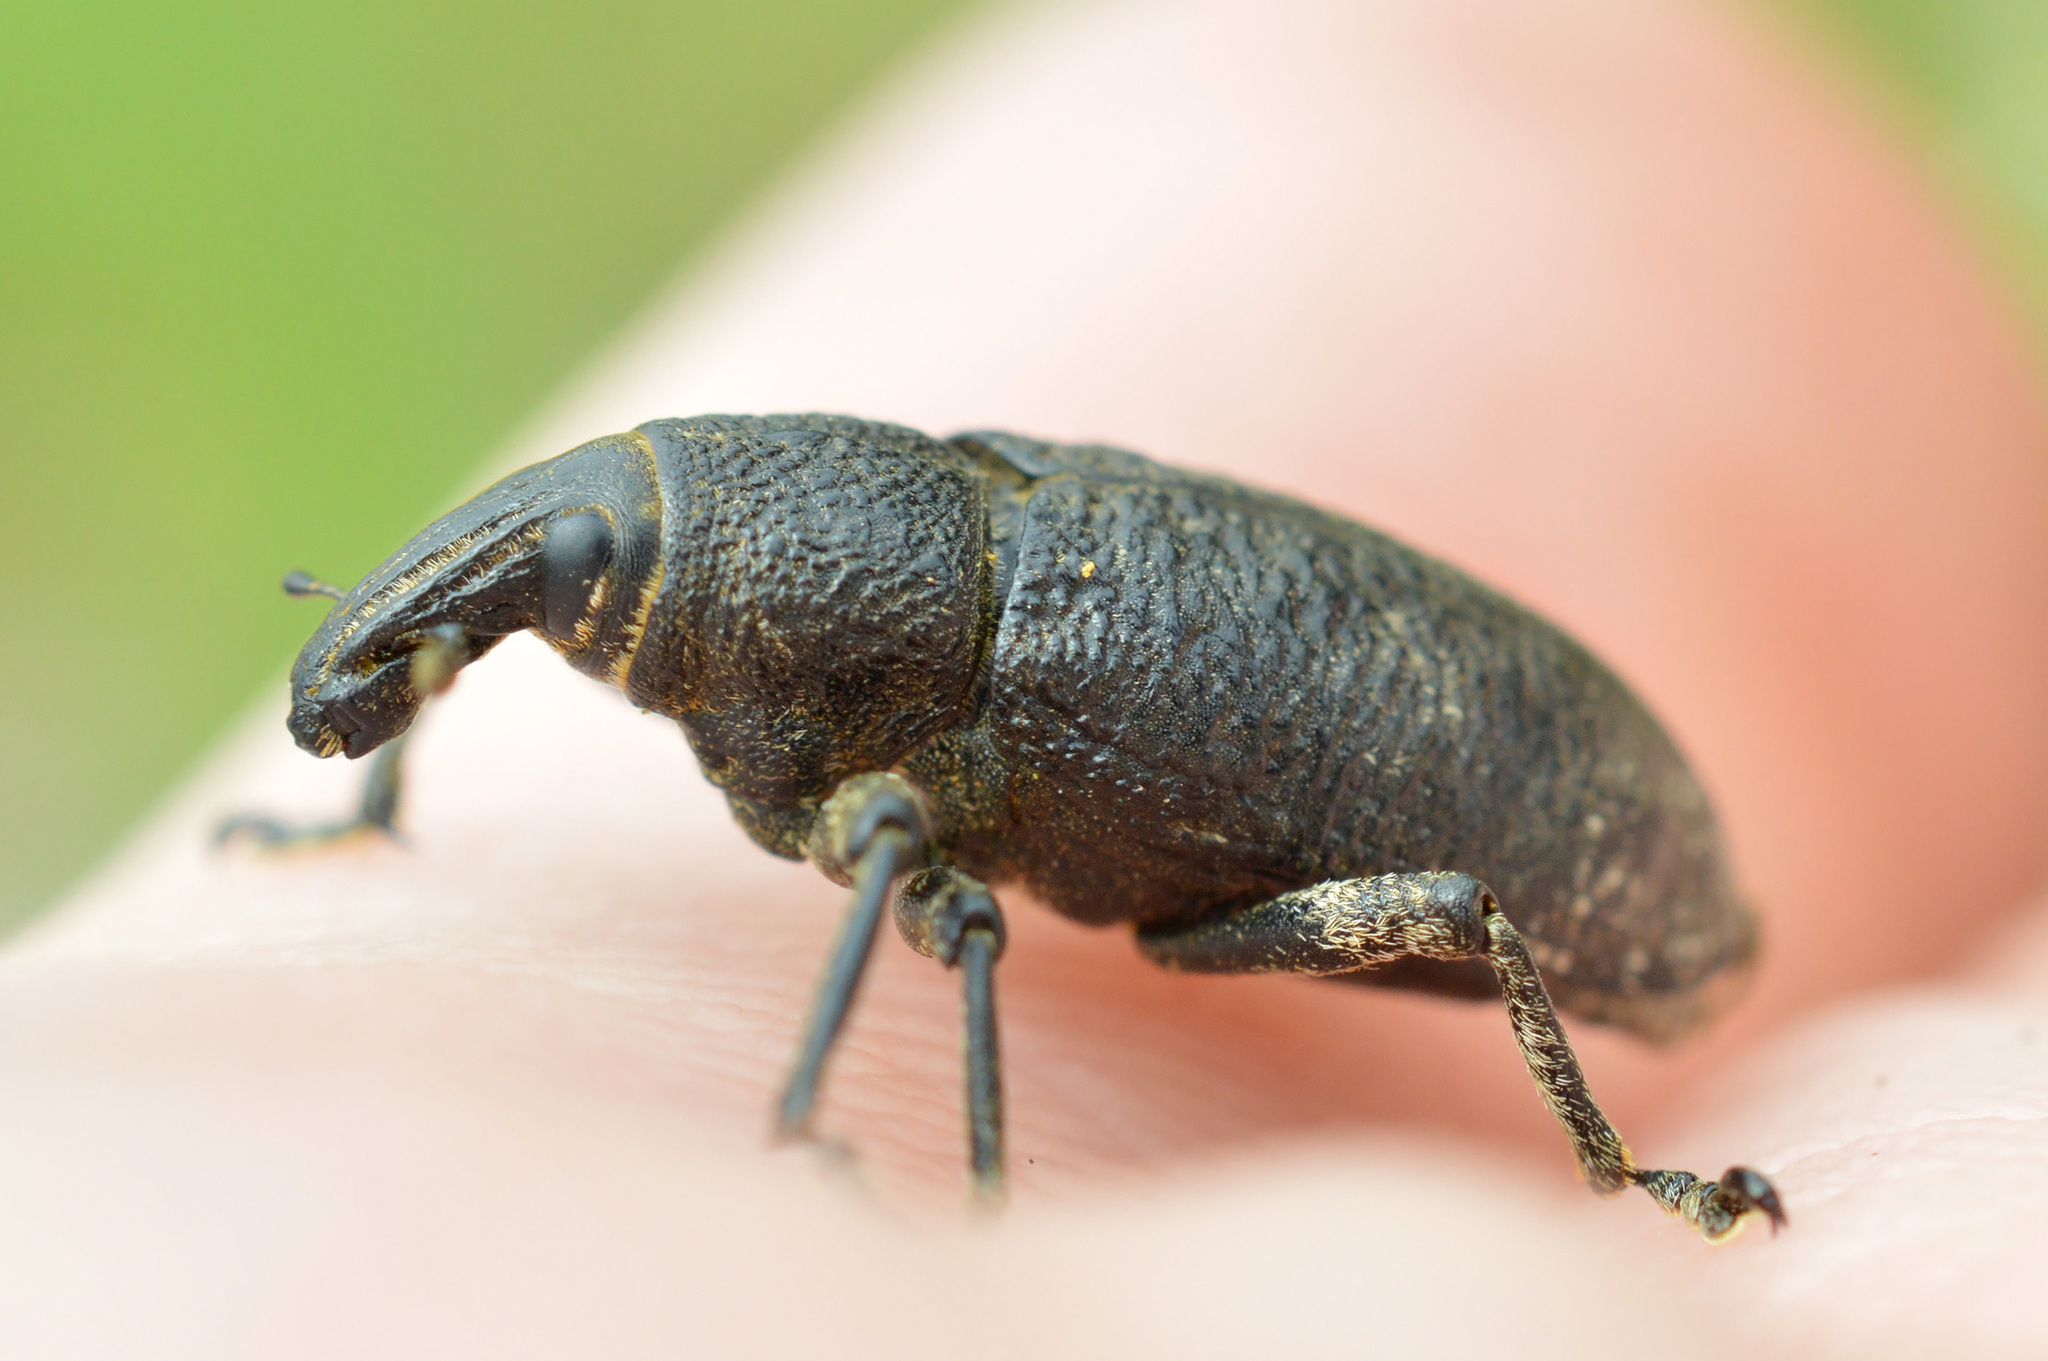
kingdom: Animalia
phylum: Arthropoda
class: Insecta
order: Coleoptera
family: Curculionidae
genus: Cleonis
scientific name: Cleonis pigra
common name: Large thistle weevil
